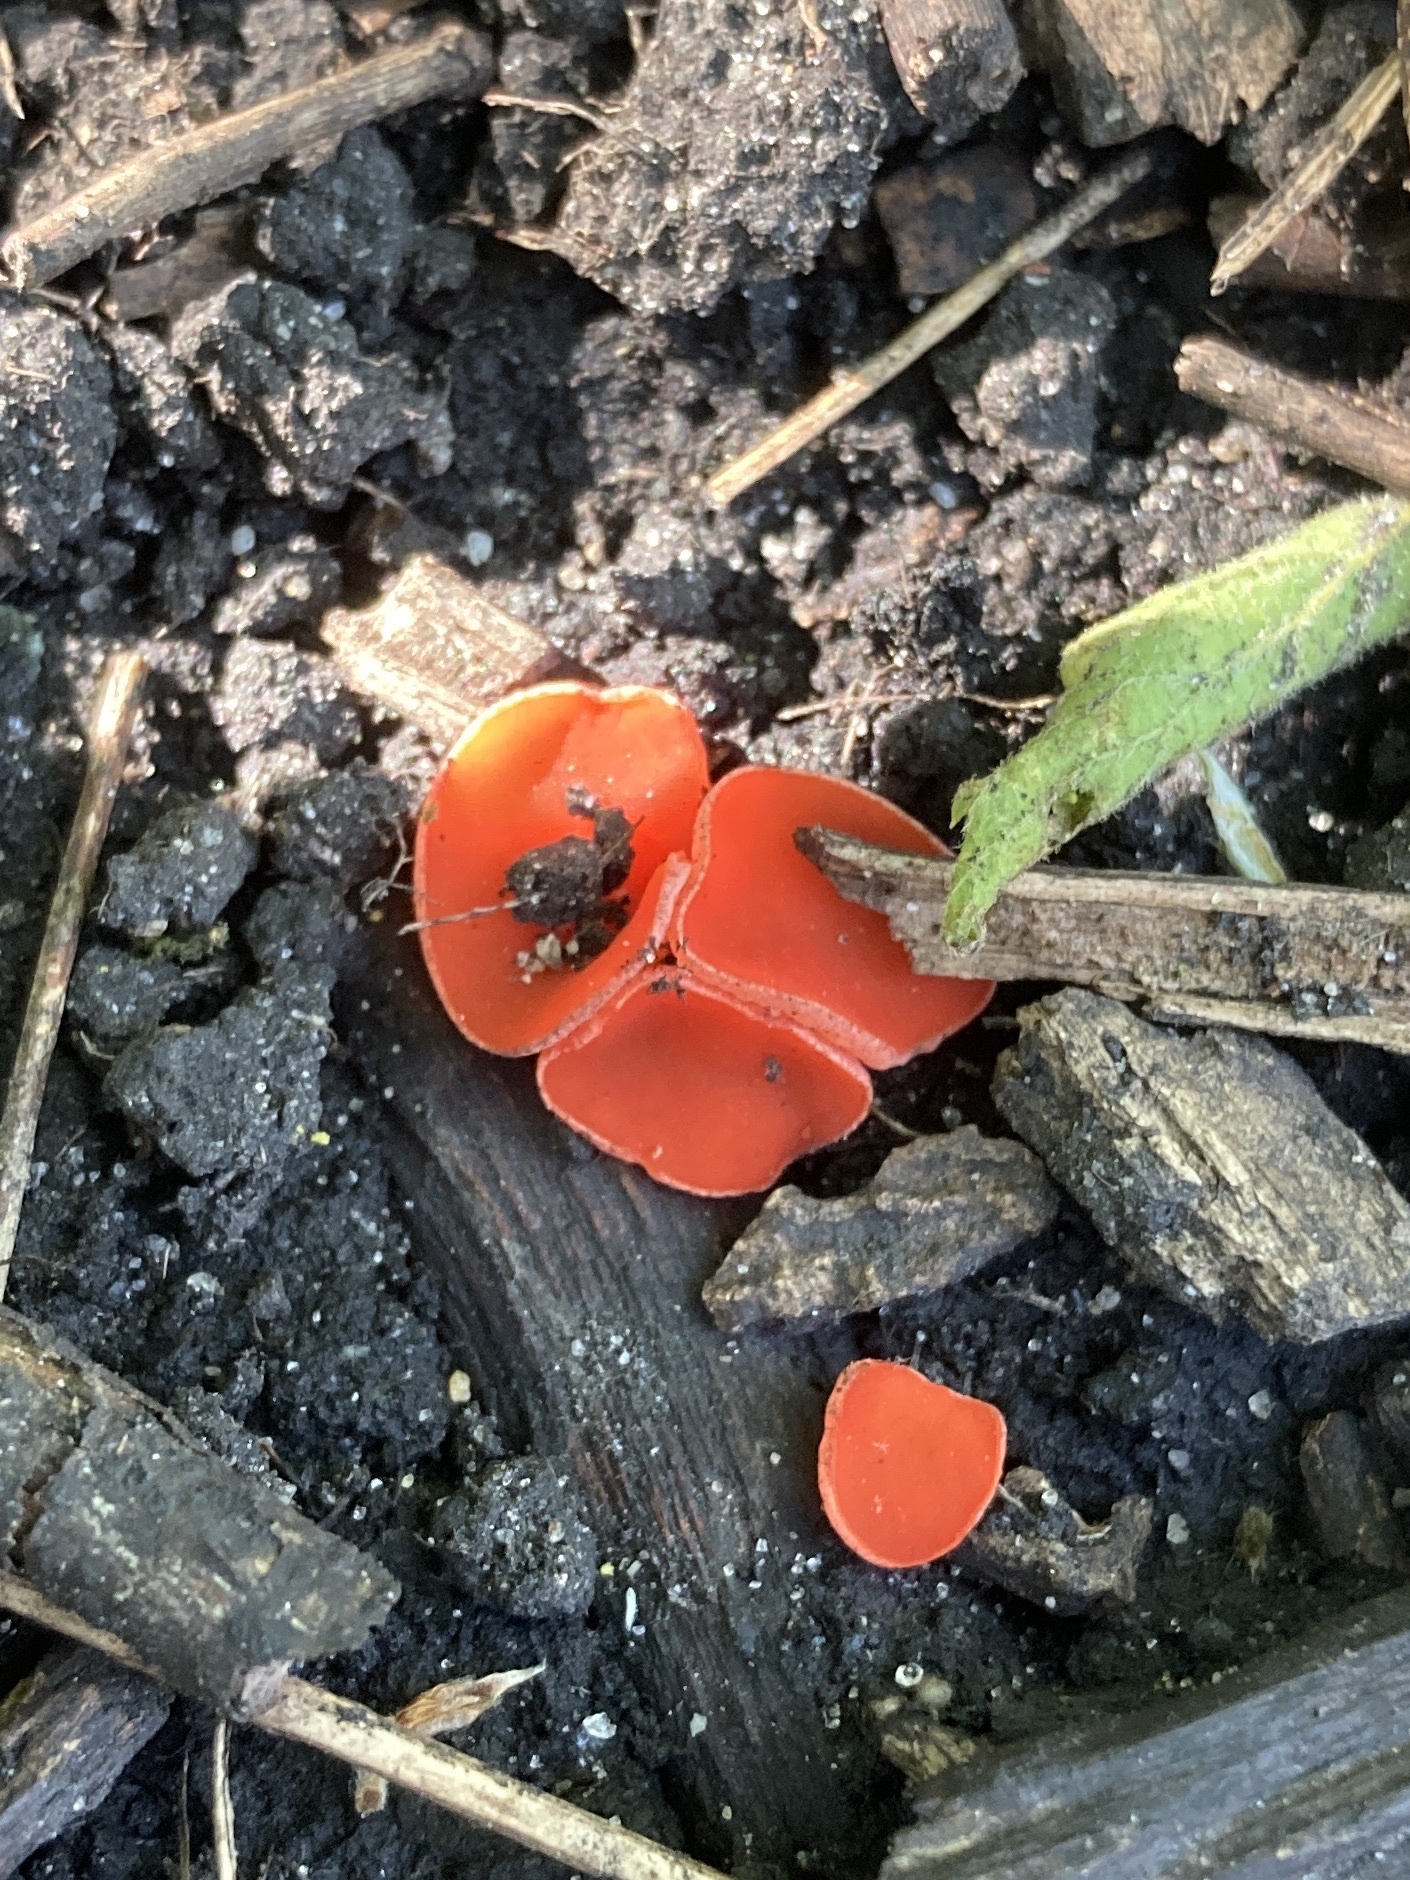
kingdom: Fungi
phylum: Ascomycota
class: Pezizomycetes
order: Pezizales
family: Sarcoscyphaceae
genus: Sarcoscypha
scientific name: Sarcoscypha occidentalis
